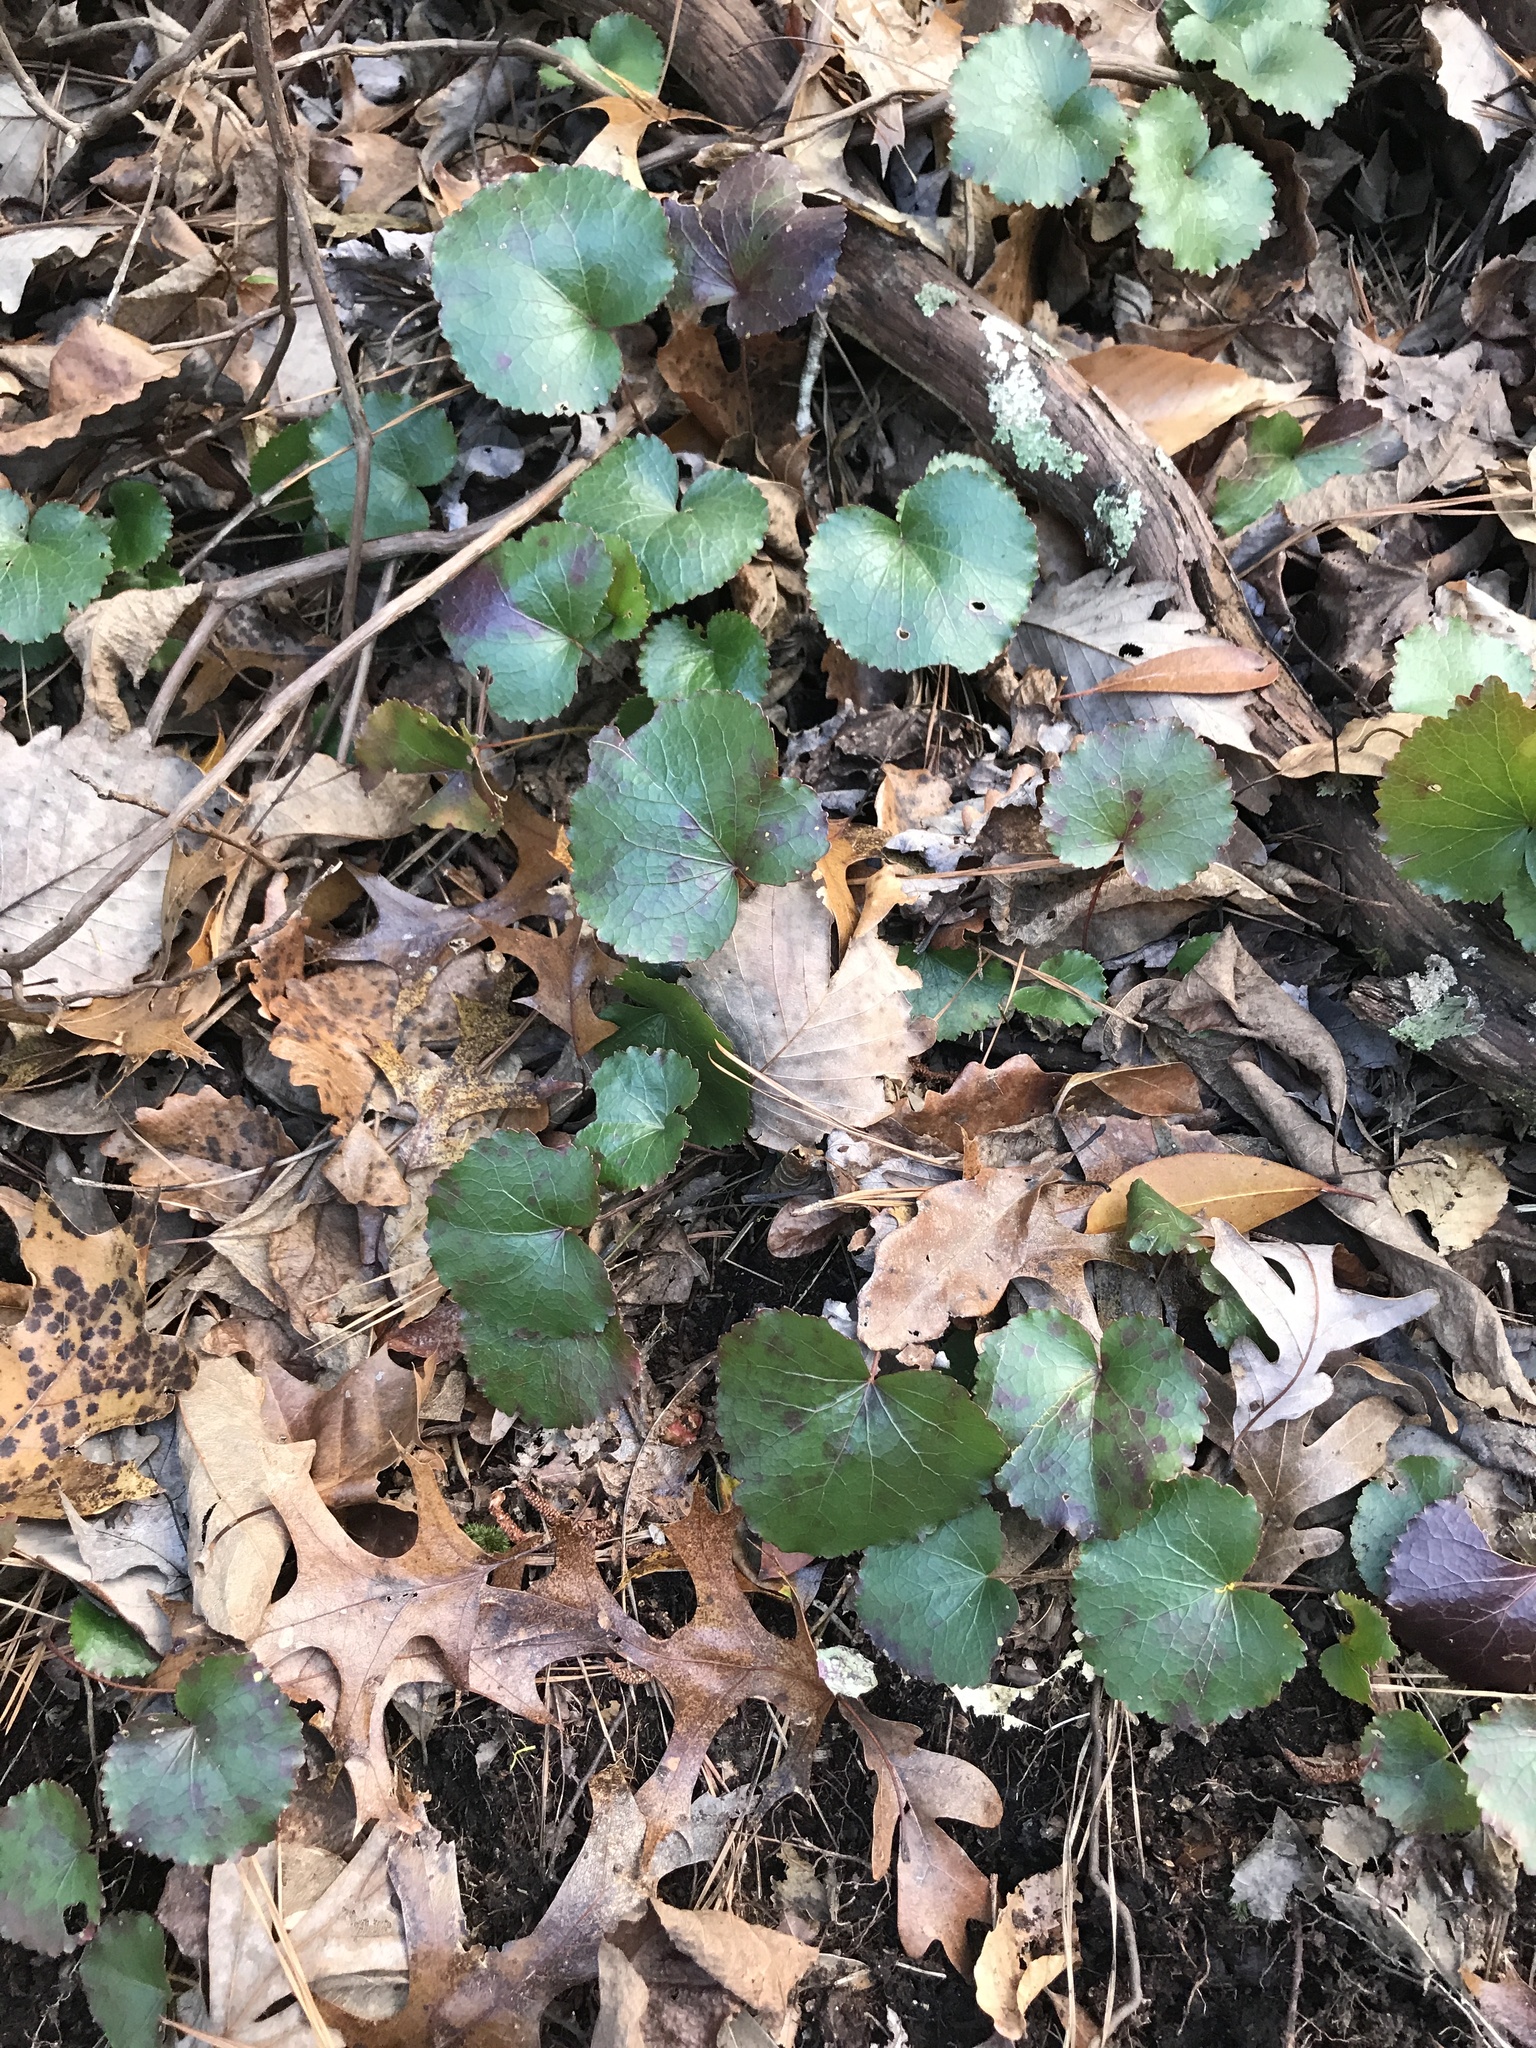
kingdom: Plantae
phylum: Tracheophyta
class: Magnoliopsida
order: Ericales
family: Diapensiaceae
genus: Galax
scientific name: Galax urceolata
